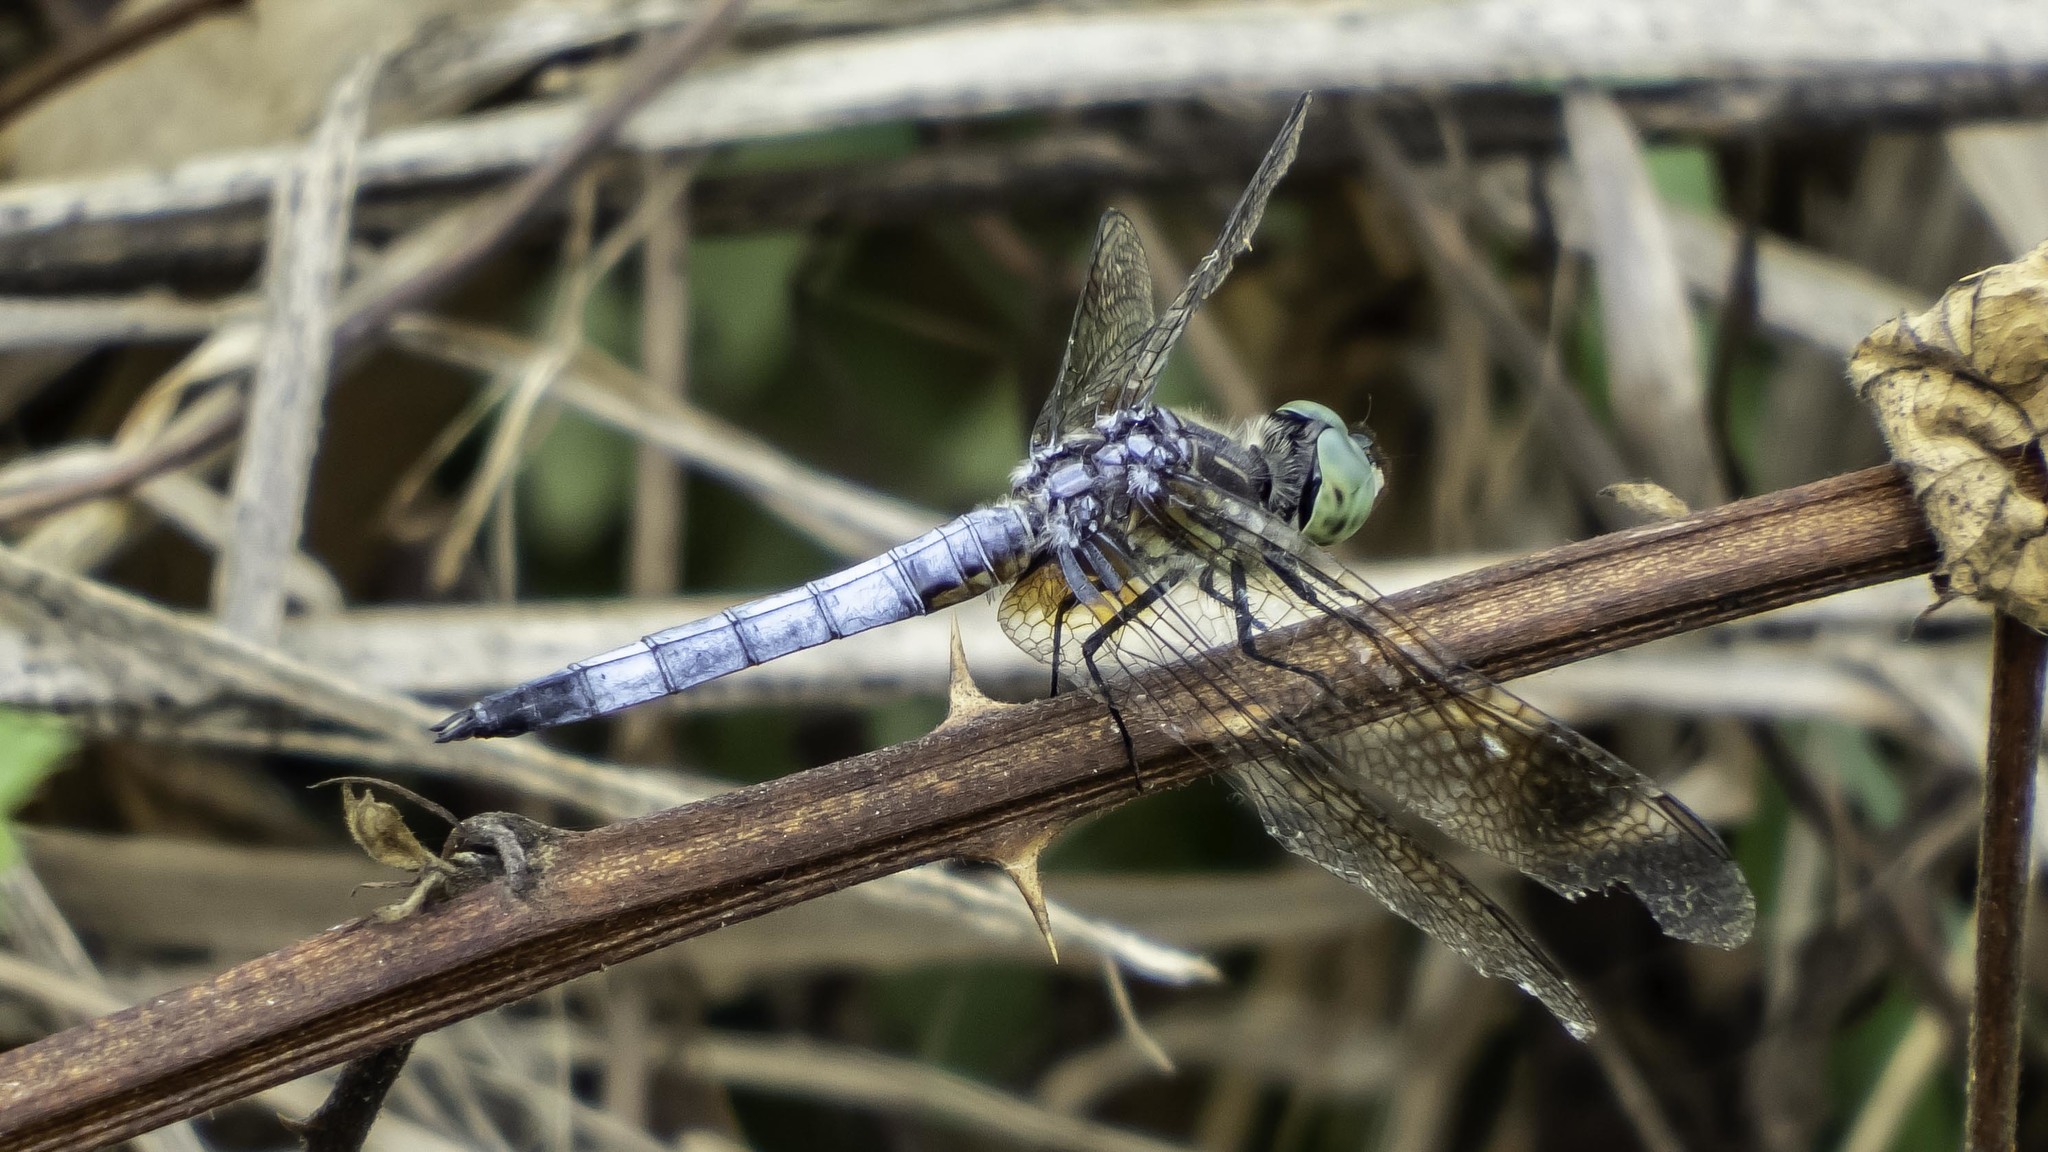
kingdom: Animalia
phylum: Arthropoda
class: Insecta
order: Odonata
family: Libellulidae
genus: Pachydiplax
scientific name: Pachydiplax longipennis
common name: Blue dasher
